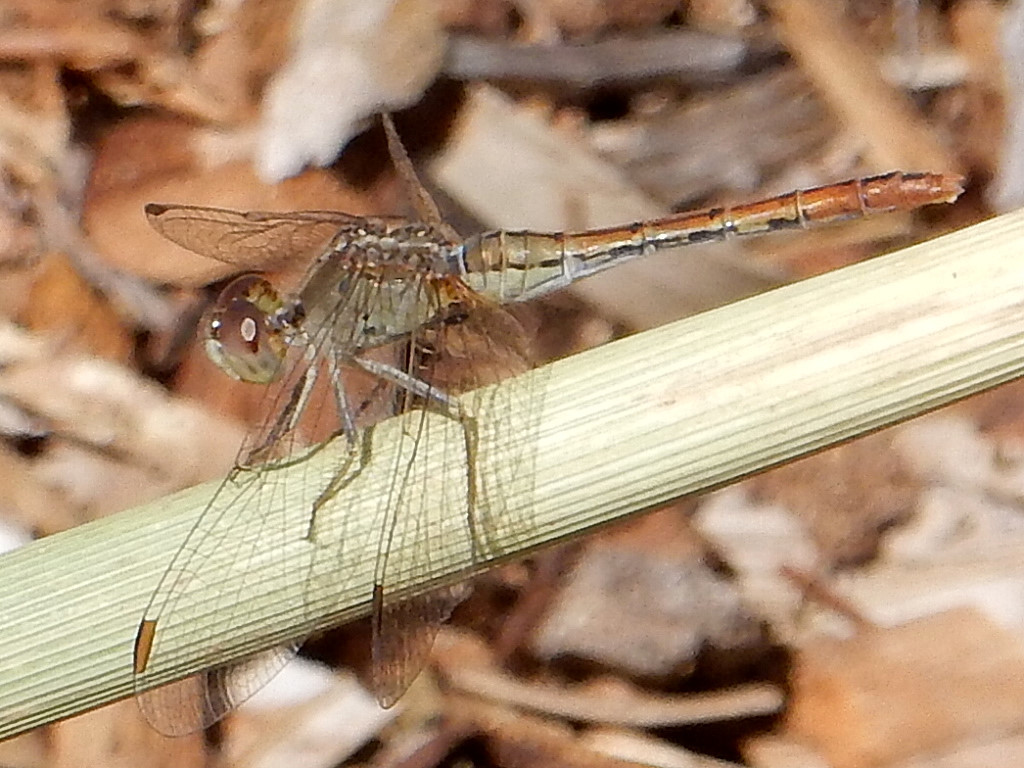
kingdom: Animalia
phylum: Arthropoda
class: Insecta
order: Odonata
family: Libellulidae
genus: Diplacodes
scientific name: Diplacodes bipunctata
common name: Red percher dragonfly
